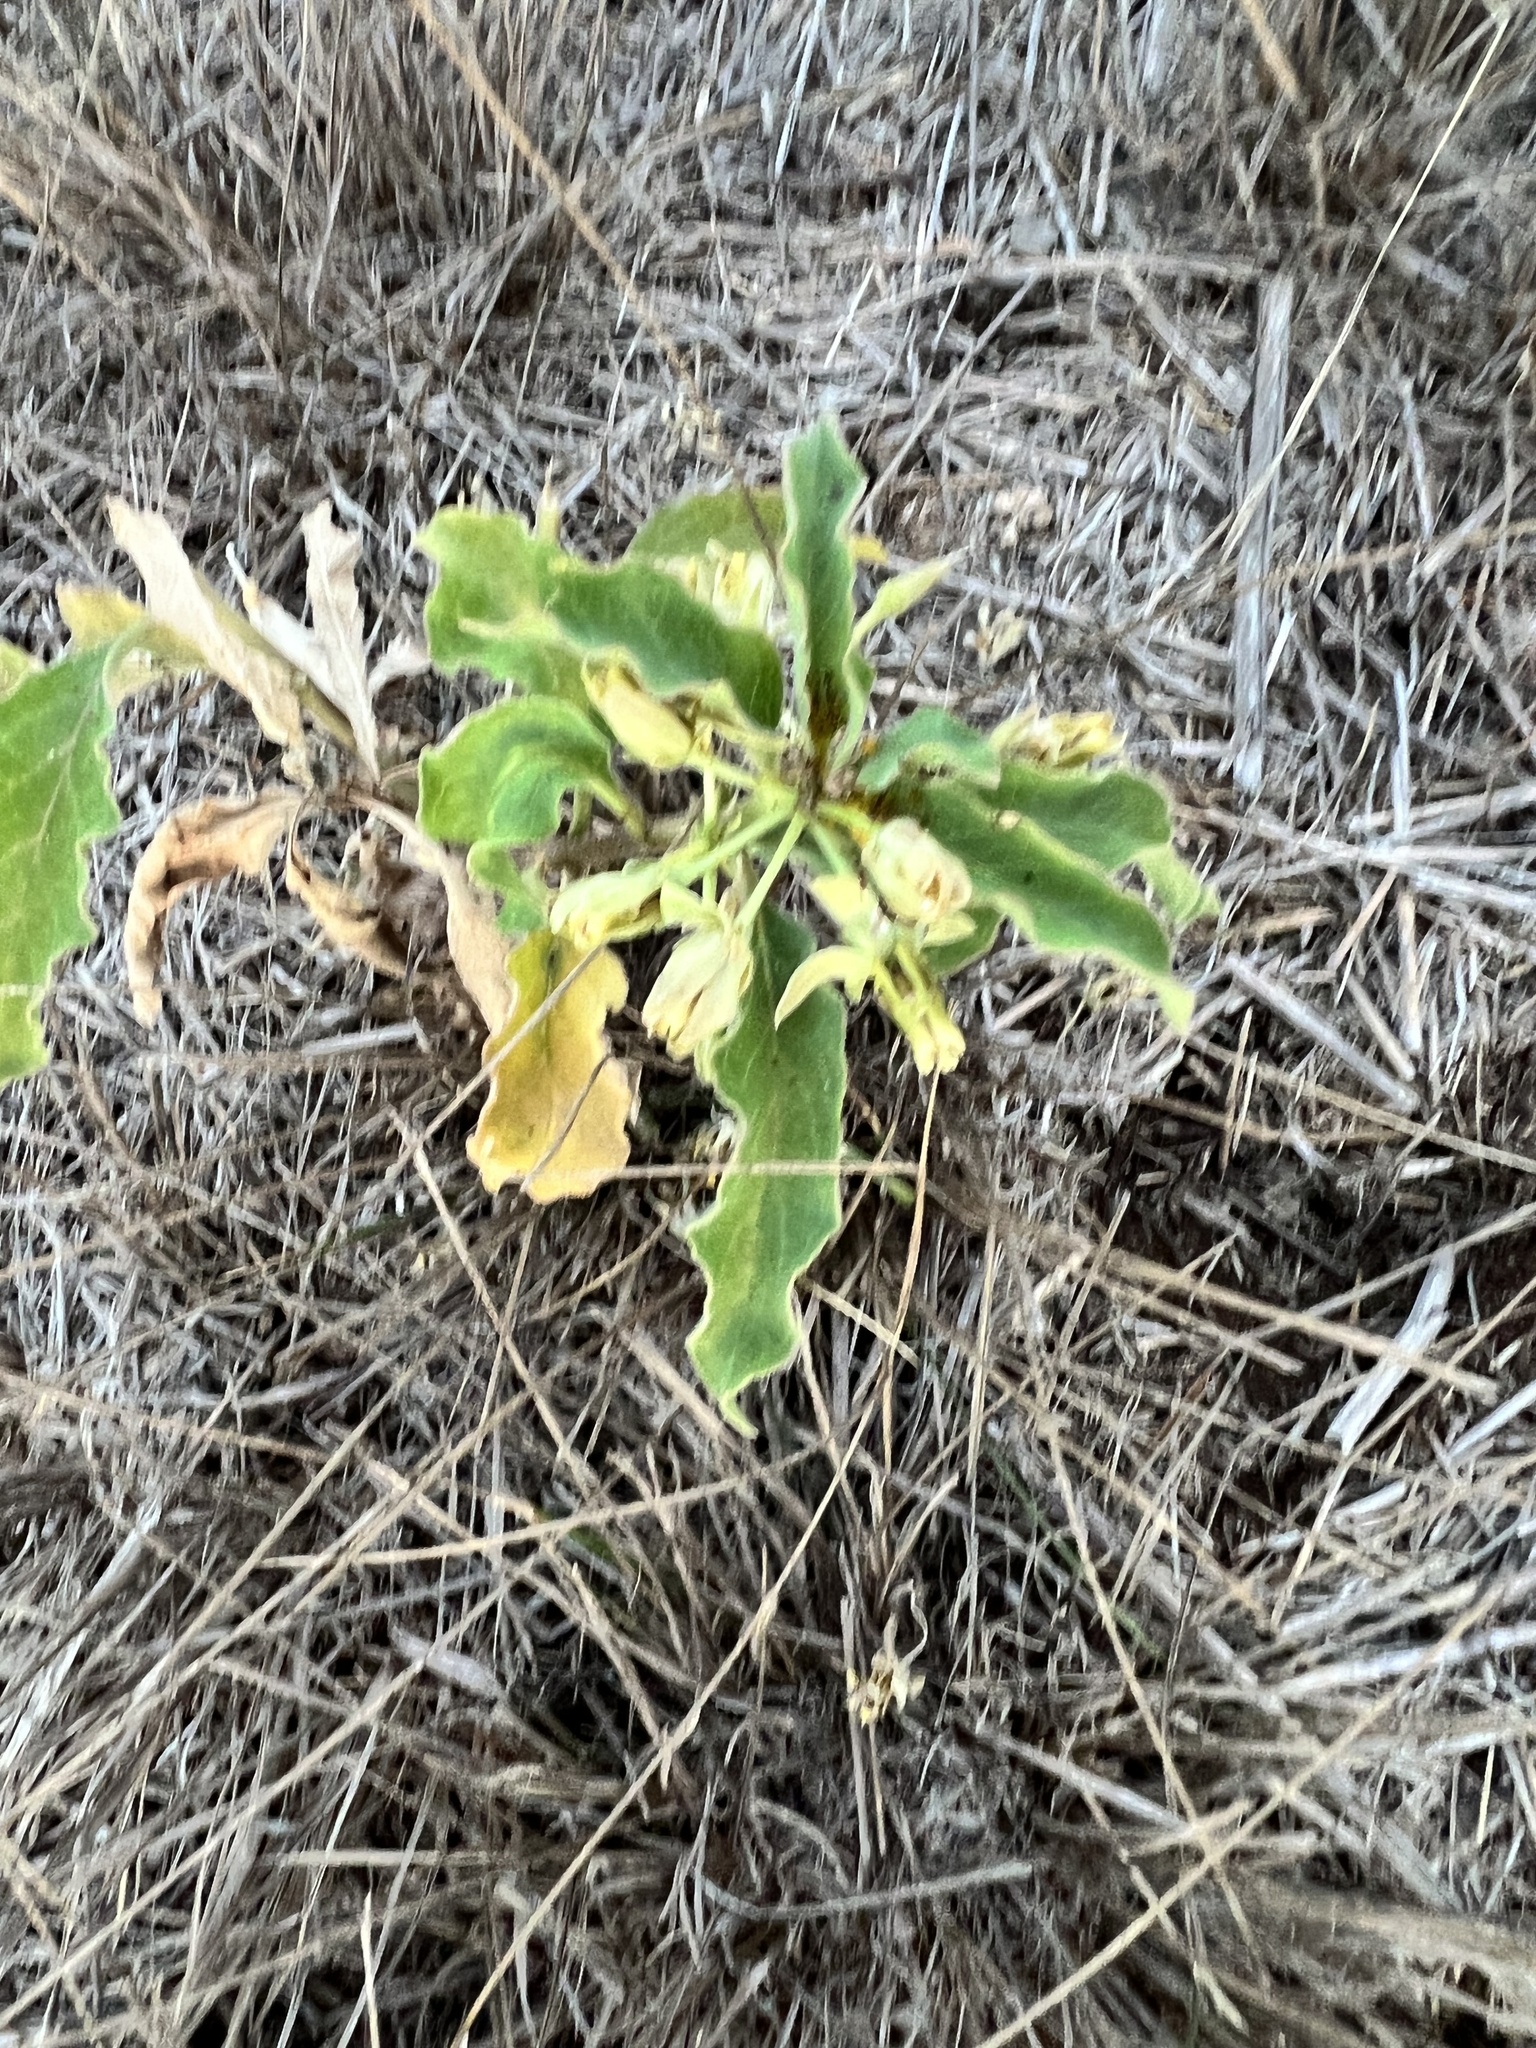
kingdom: Plantae
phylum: Tracheophyta
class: Magnoliopsida
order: Gentianales
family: Apocynaceae
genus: Asclepias
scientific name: Asclepias oenotheroides
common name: Zizotes milkweed
